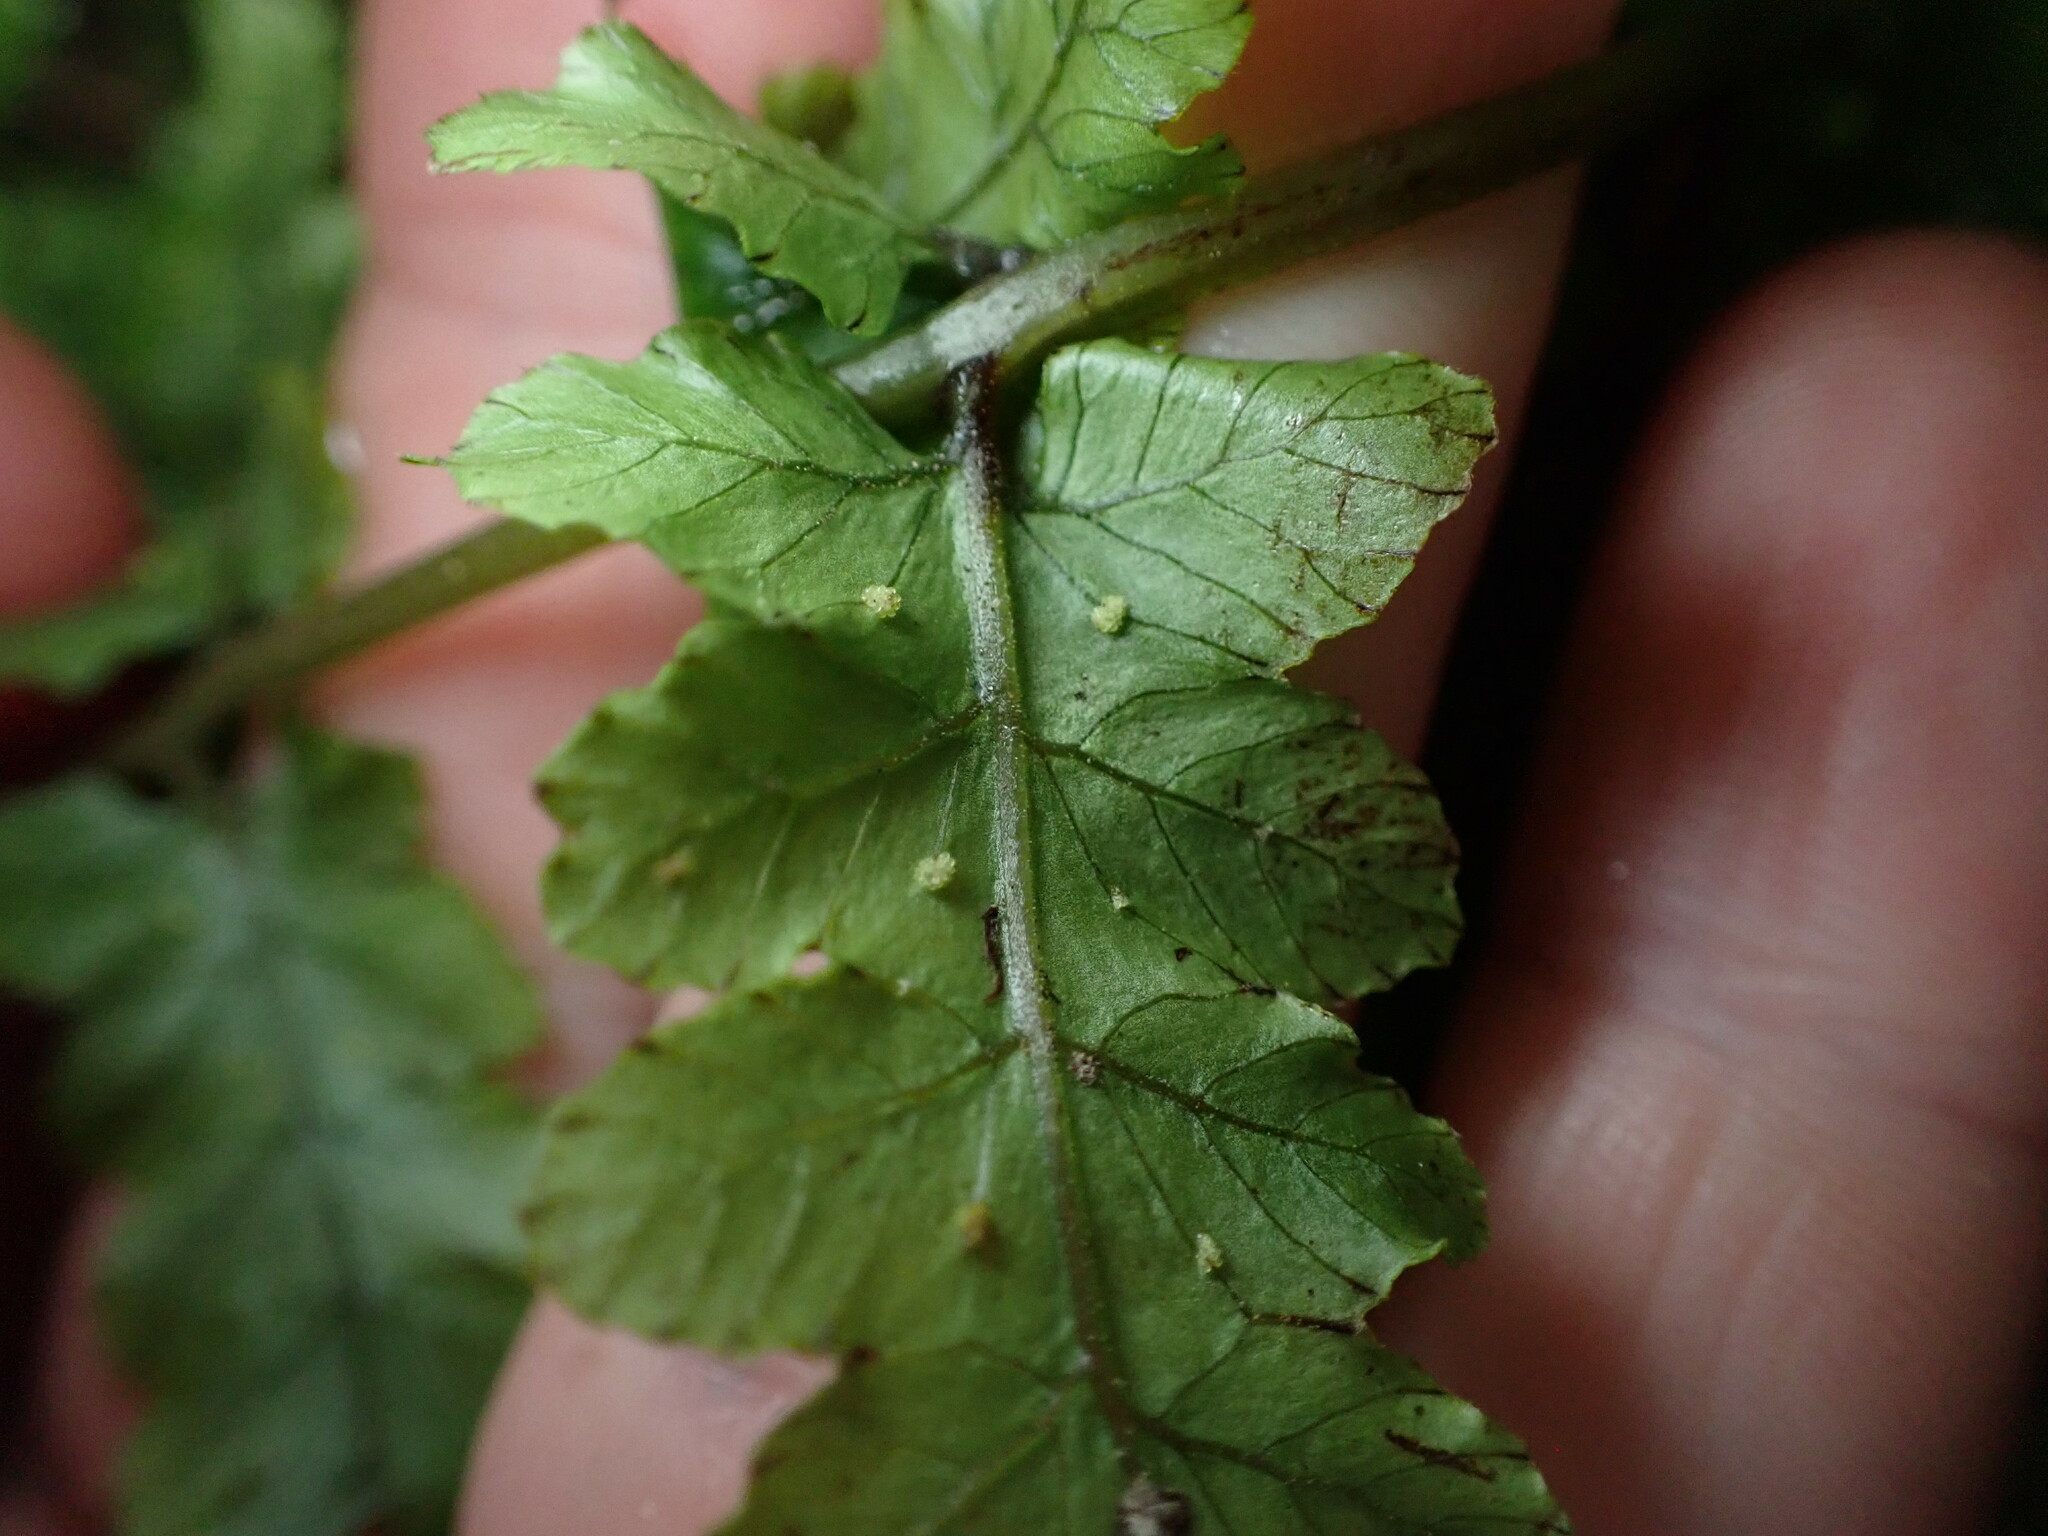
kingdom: Plantae
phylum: Tracheophyta
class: Polypodiopsida
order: Polypodiales
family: Thelypteridaceae
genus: Pakau
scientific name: Pakau pennigera
